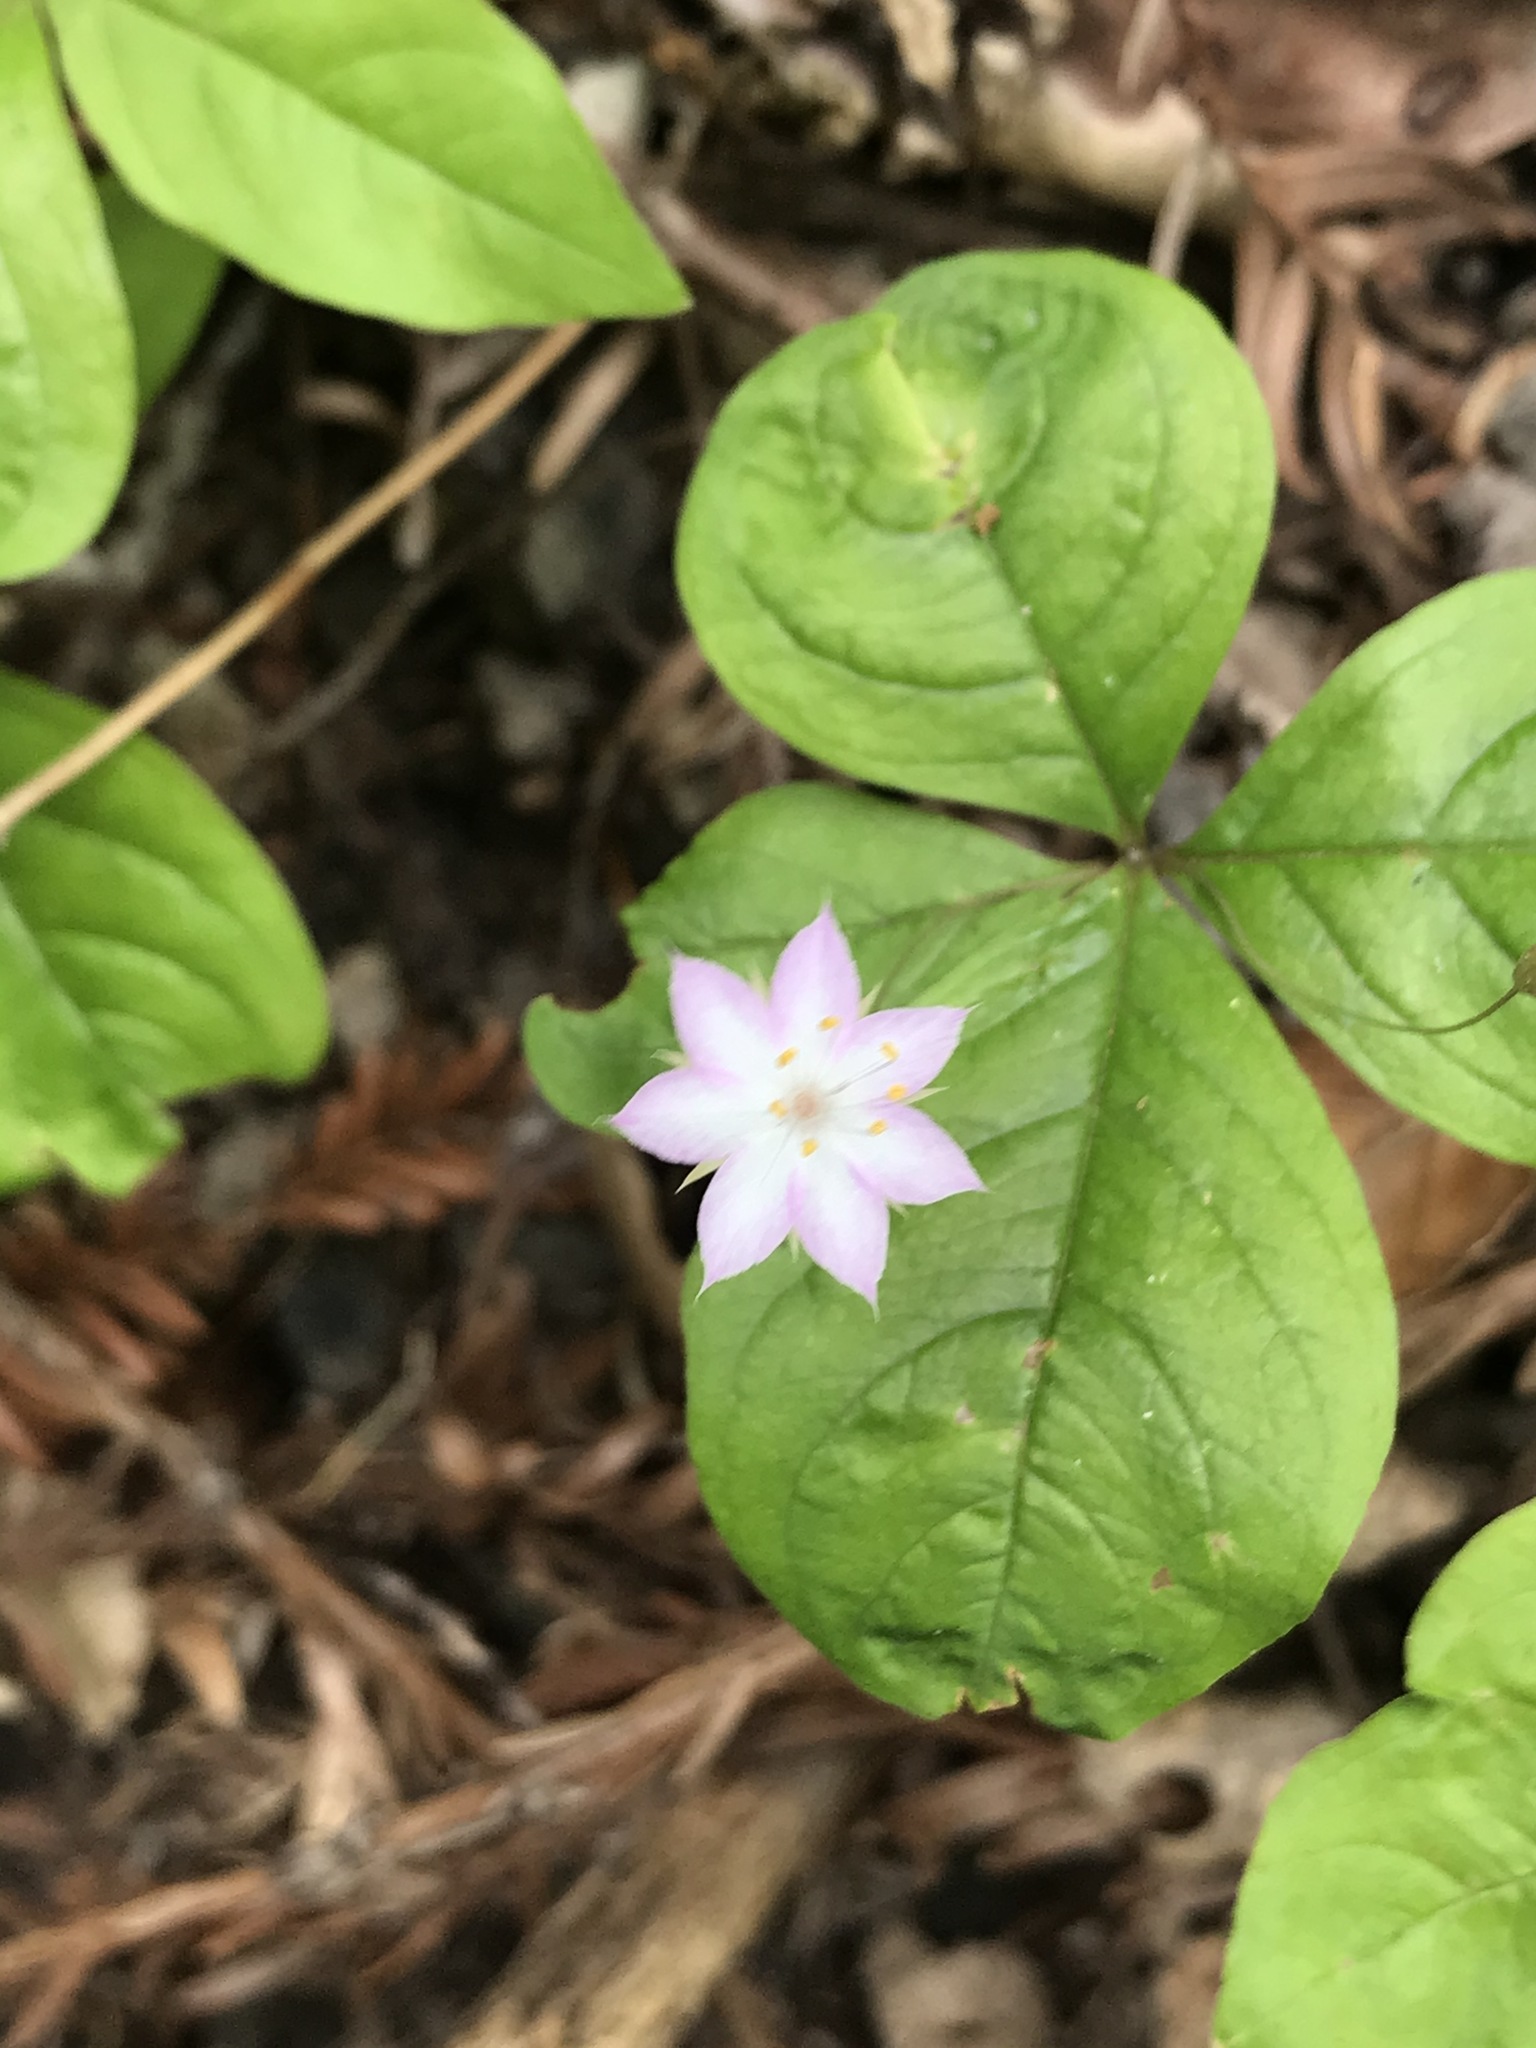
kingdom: Plantae
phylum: Tracheophyta
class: Magnoliopsida
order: Ericales
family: Primulaceae
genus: Lysimachia
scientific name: Lysimachia latifolia
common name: Pacific starflower
